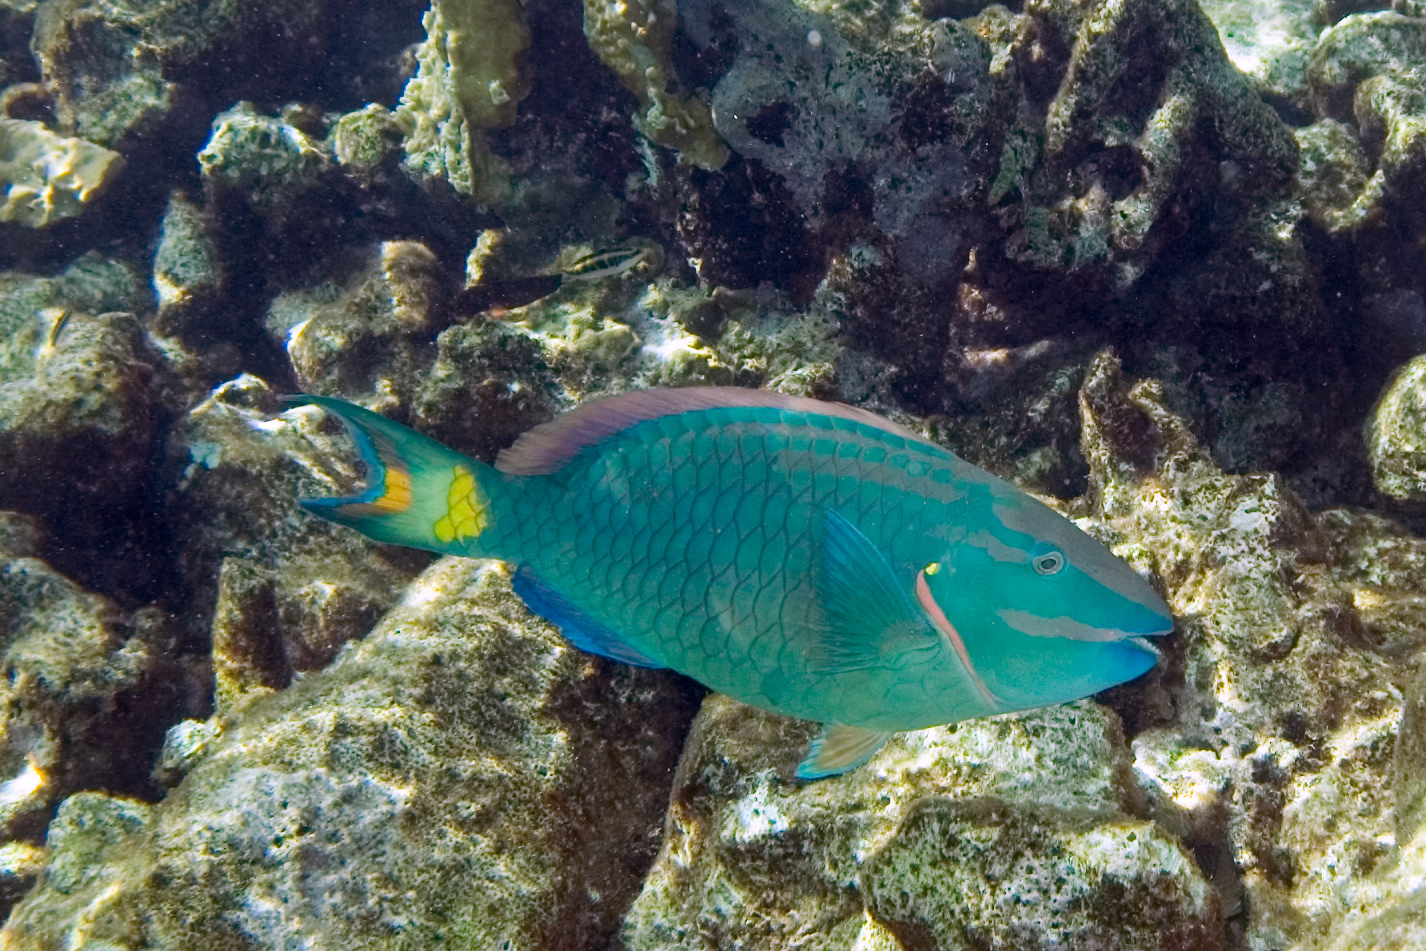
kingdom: Animalia
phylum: Chordata
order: Perciformes
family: Scaridae
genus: Sparisoma
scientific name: Sparisoma viride
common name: Stoplight parrotfish
